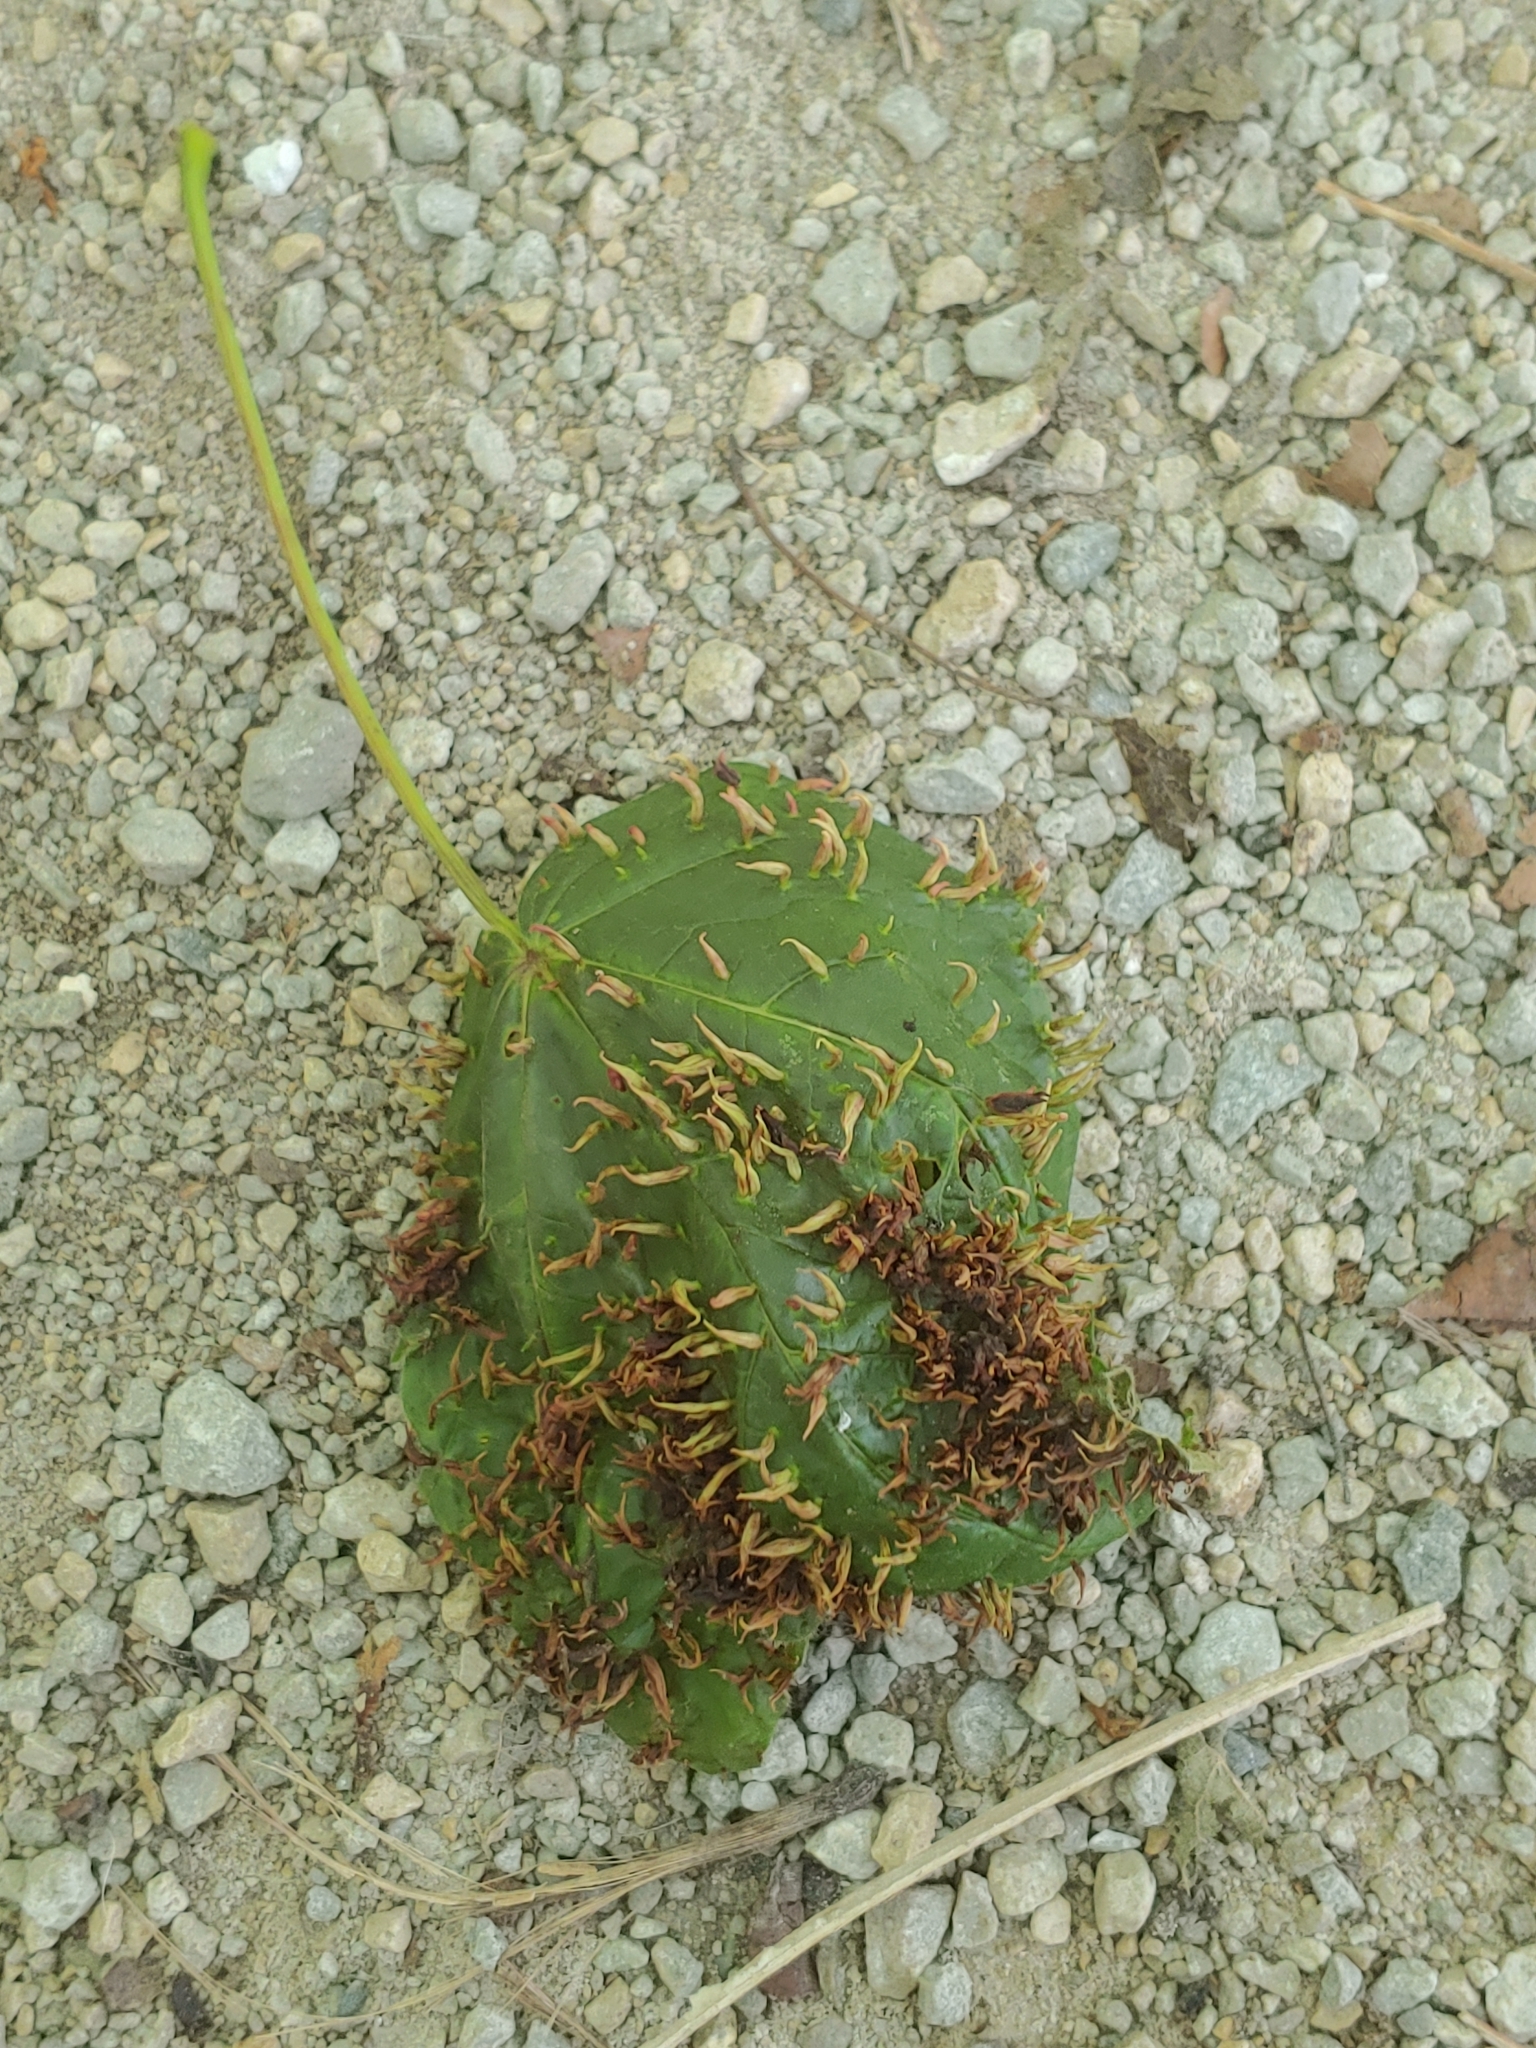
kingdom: Animalia
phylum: Arthropoda
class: Arachnida
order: Trombidiformes
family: Eriophyidae
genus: Vasates
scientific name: Vasates aceriscrumena
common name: Maple spindle gall mite
